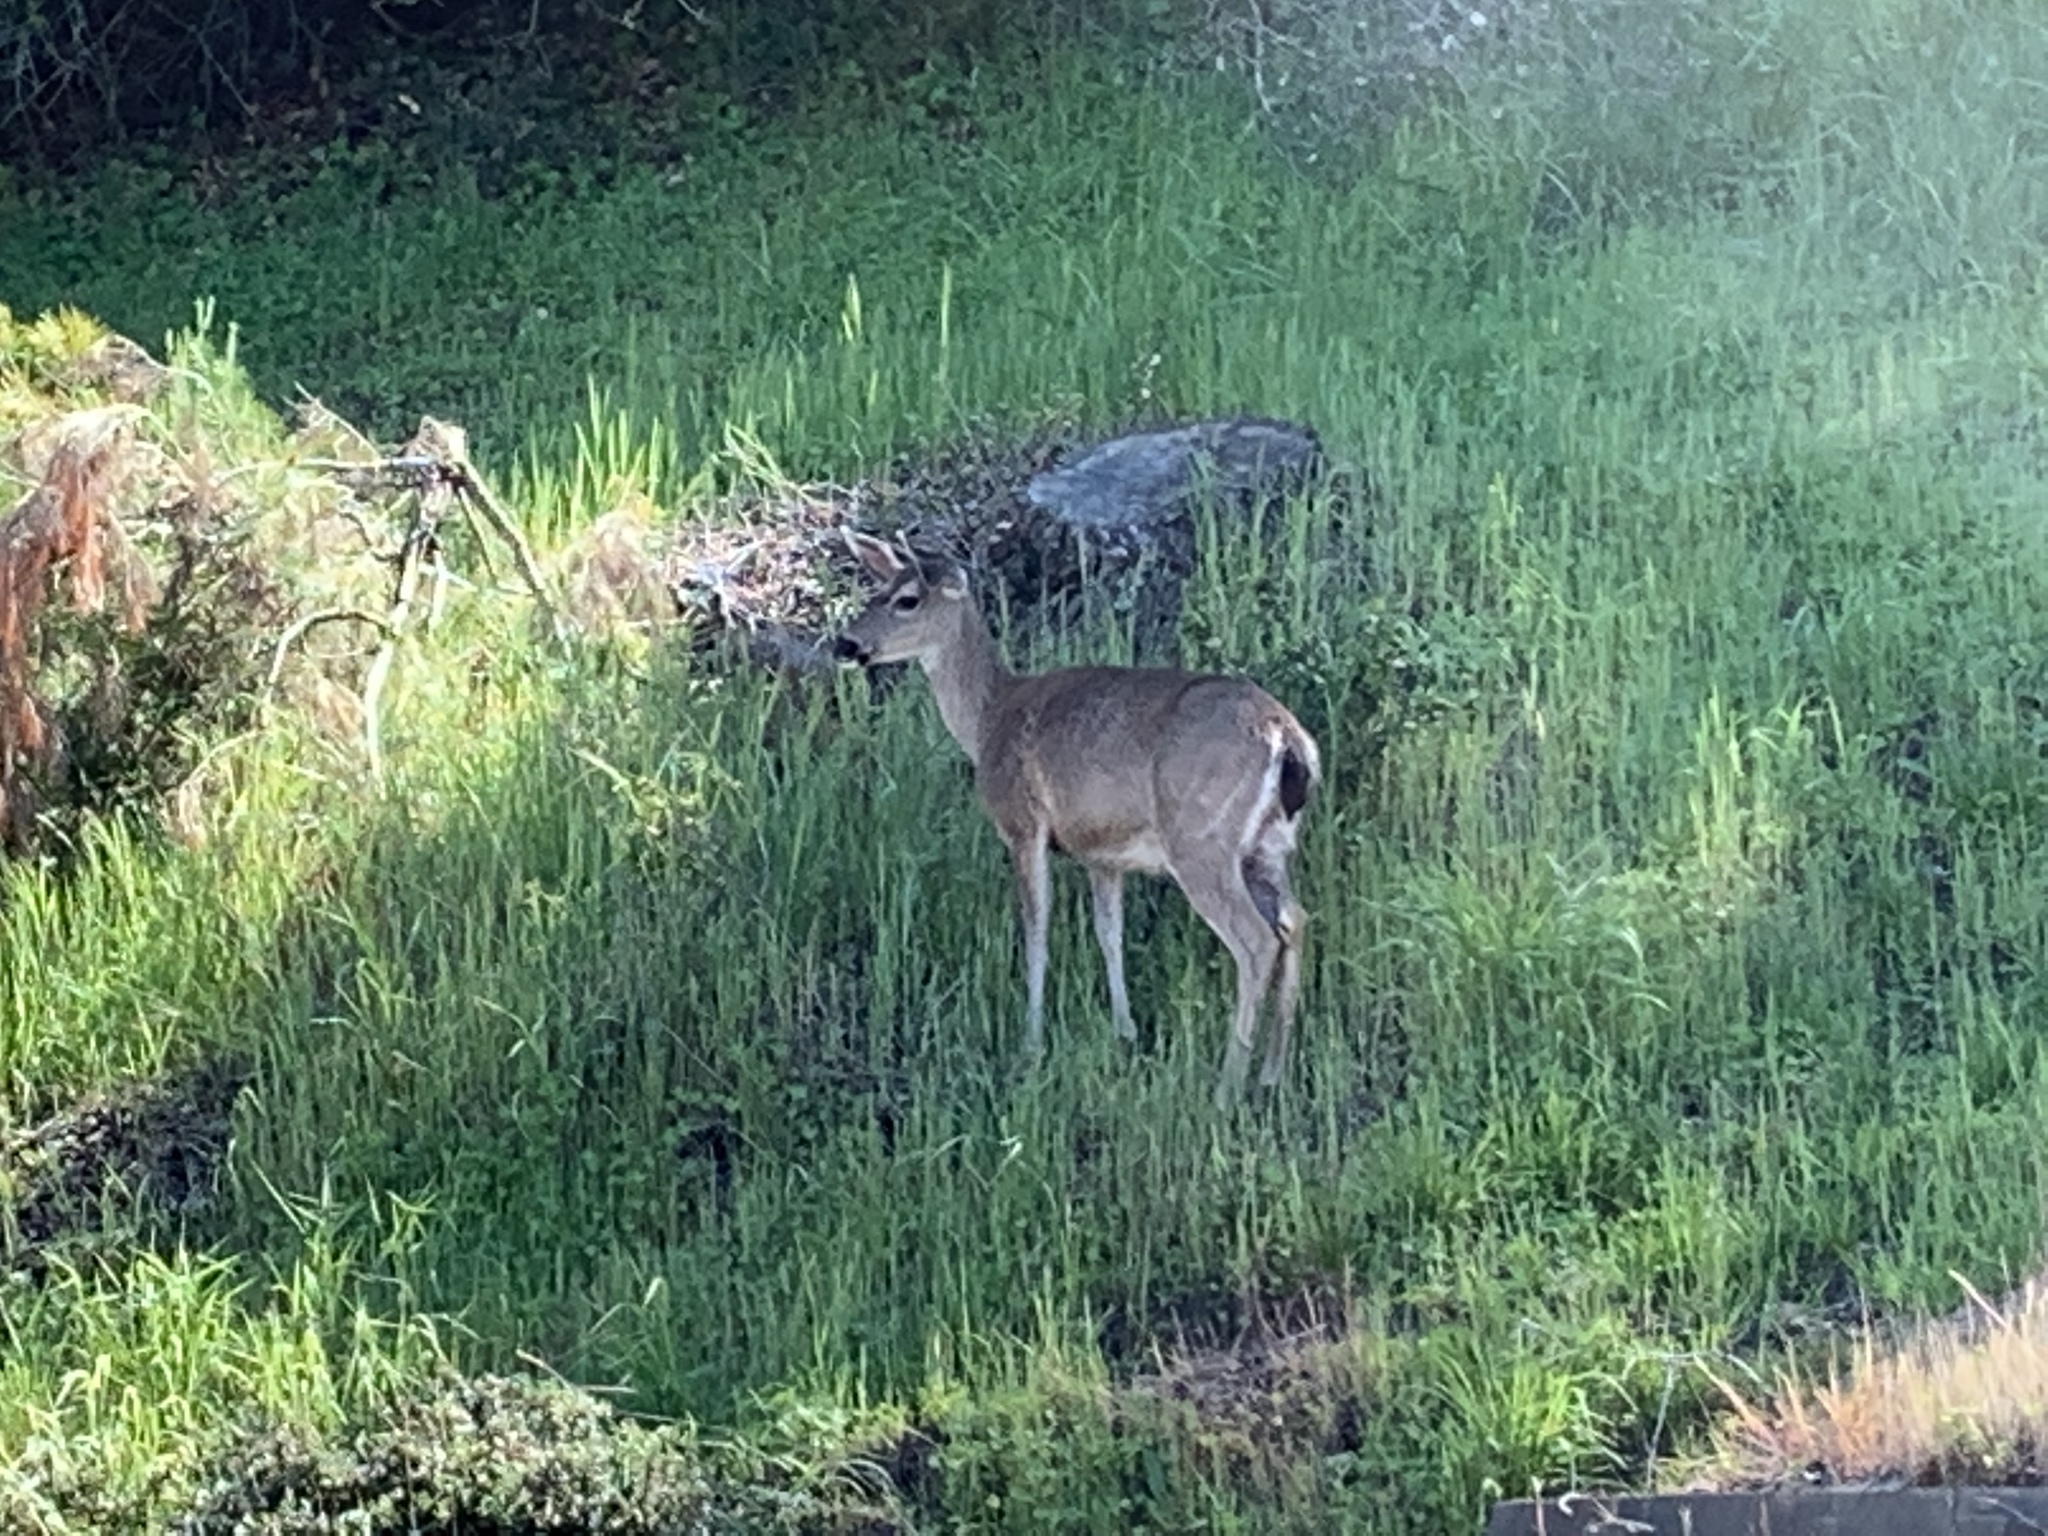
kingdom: Animalia
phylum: Chordata
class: Mammalia
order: Artiodactyla
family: Cervidae
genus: Odocoileus
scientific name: Odocoileus hemionus
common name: Mule deer
